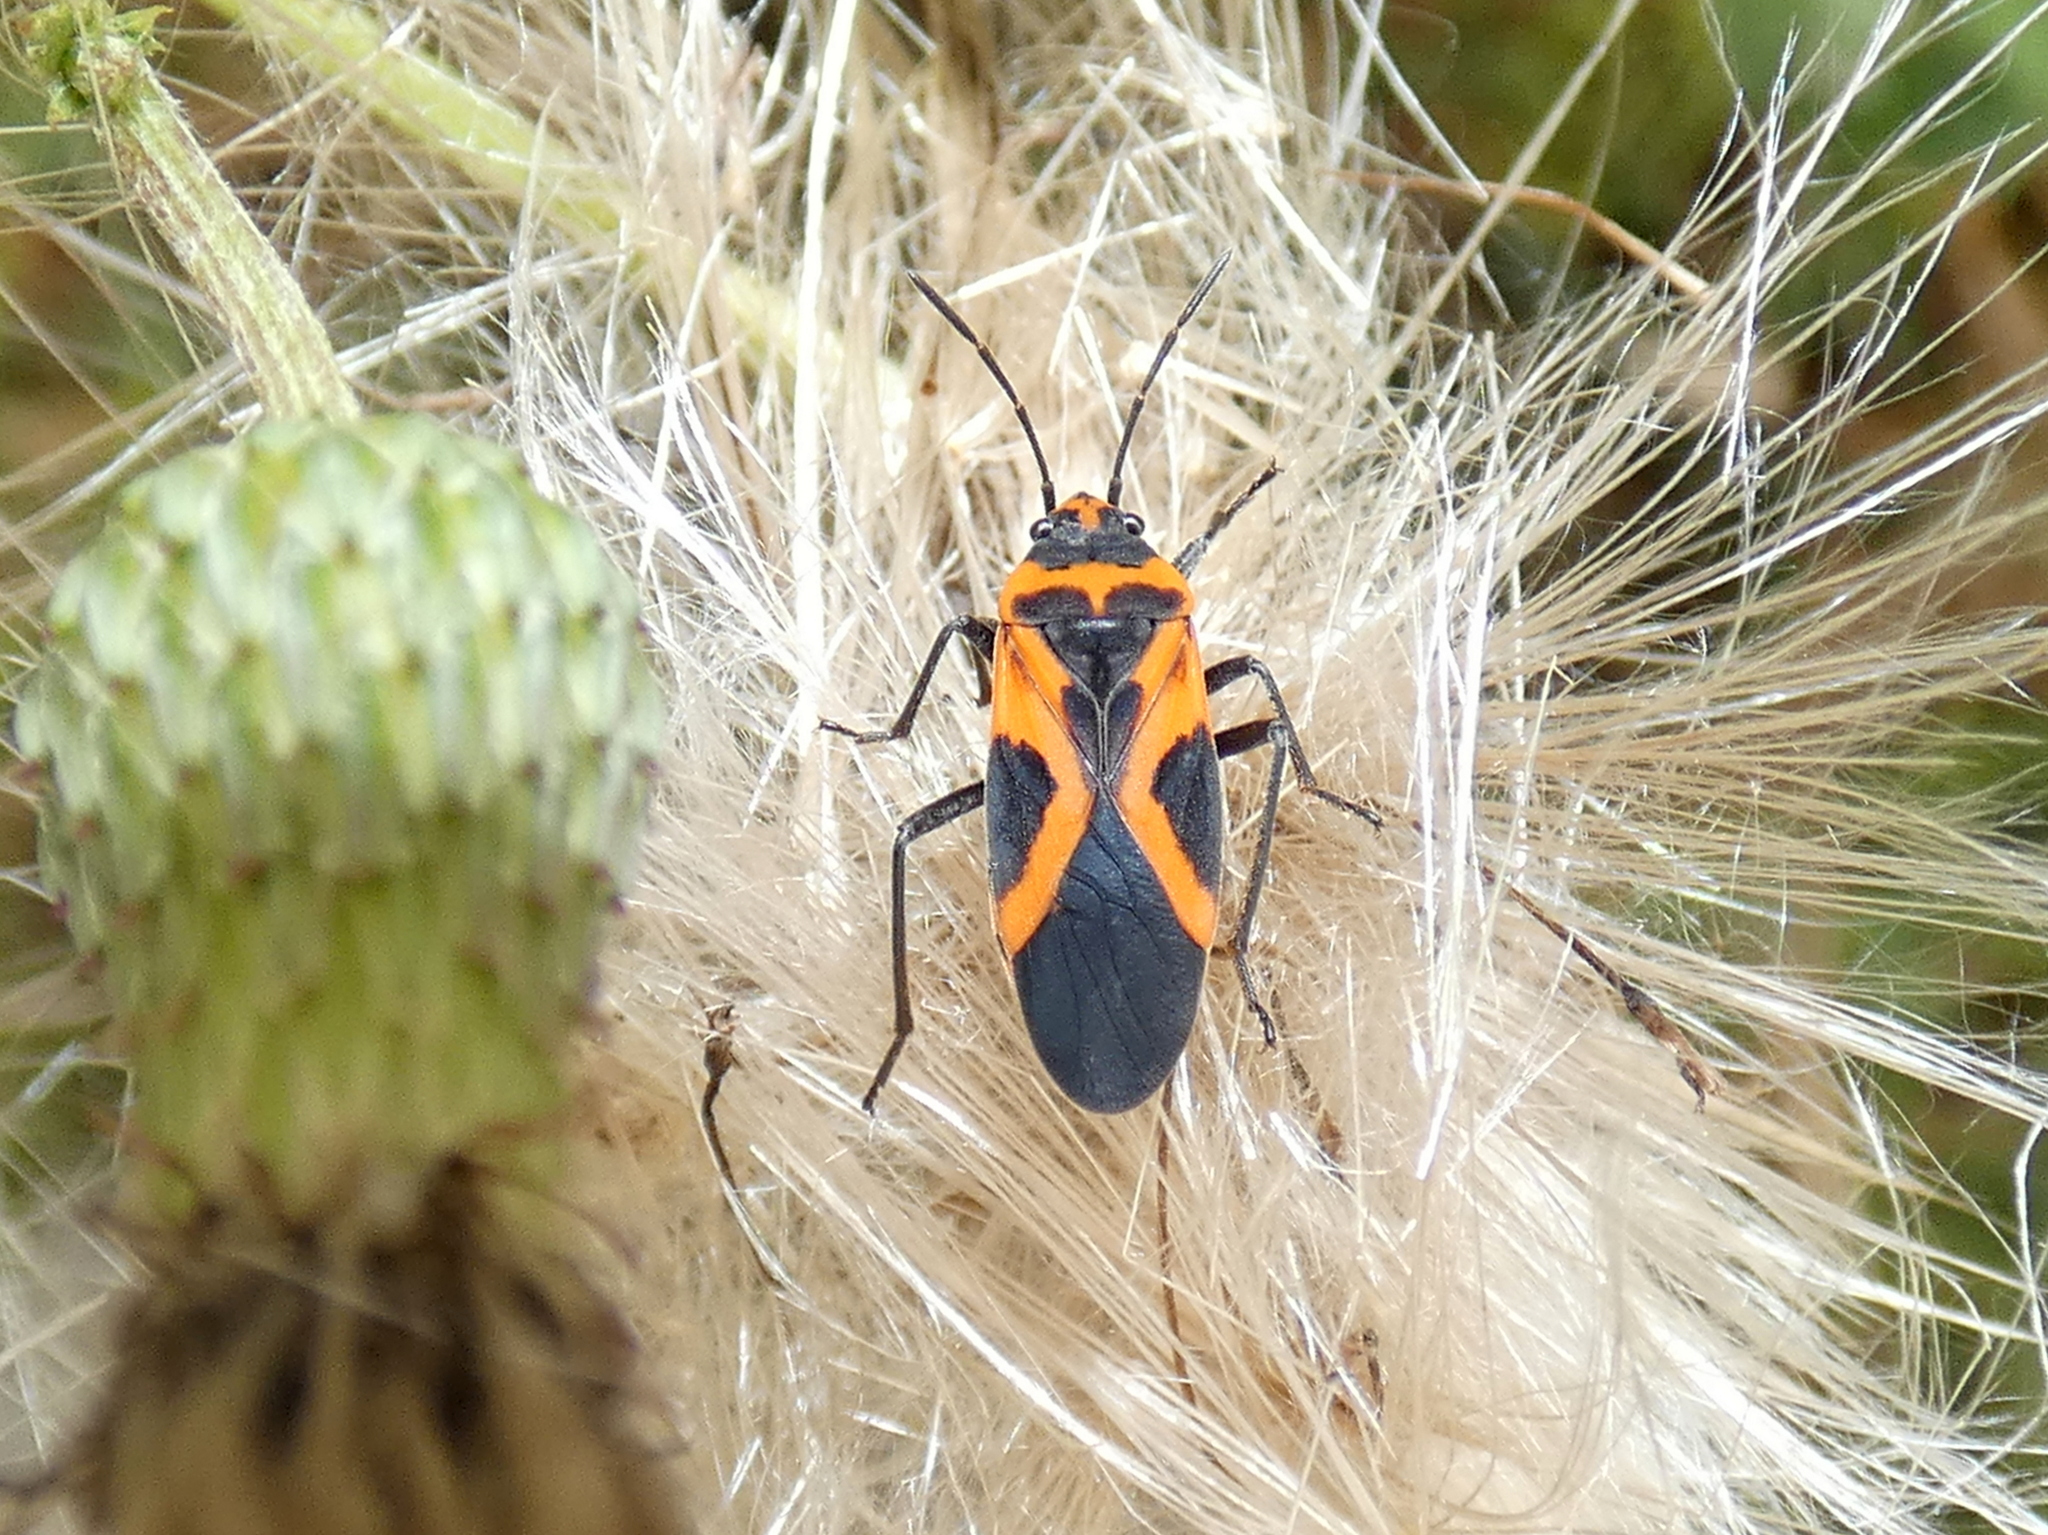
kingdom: Animalia
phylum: Arthropoda
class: Insecta
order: Hemiptera
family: Lygaeidae
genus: Lygaeus
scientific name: Lygaeus turcicus
